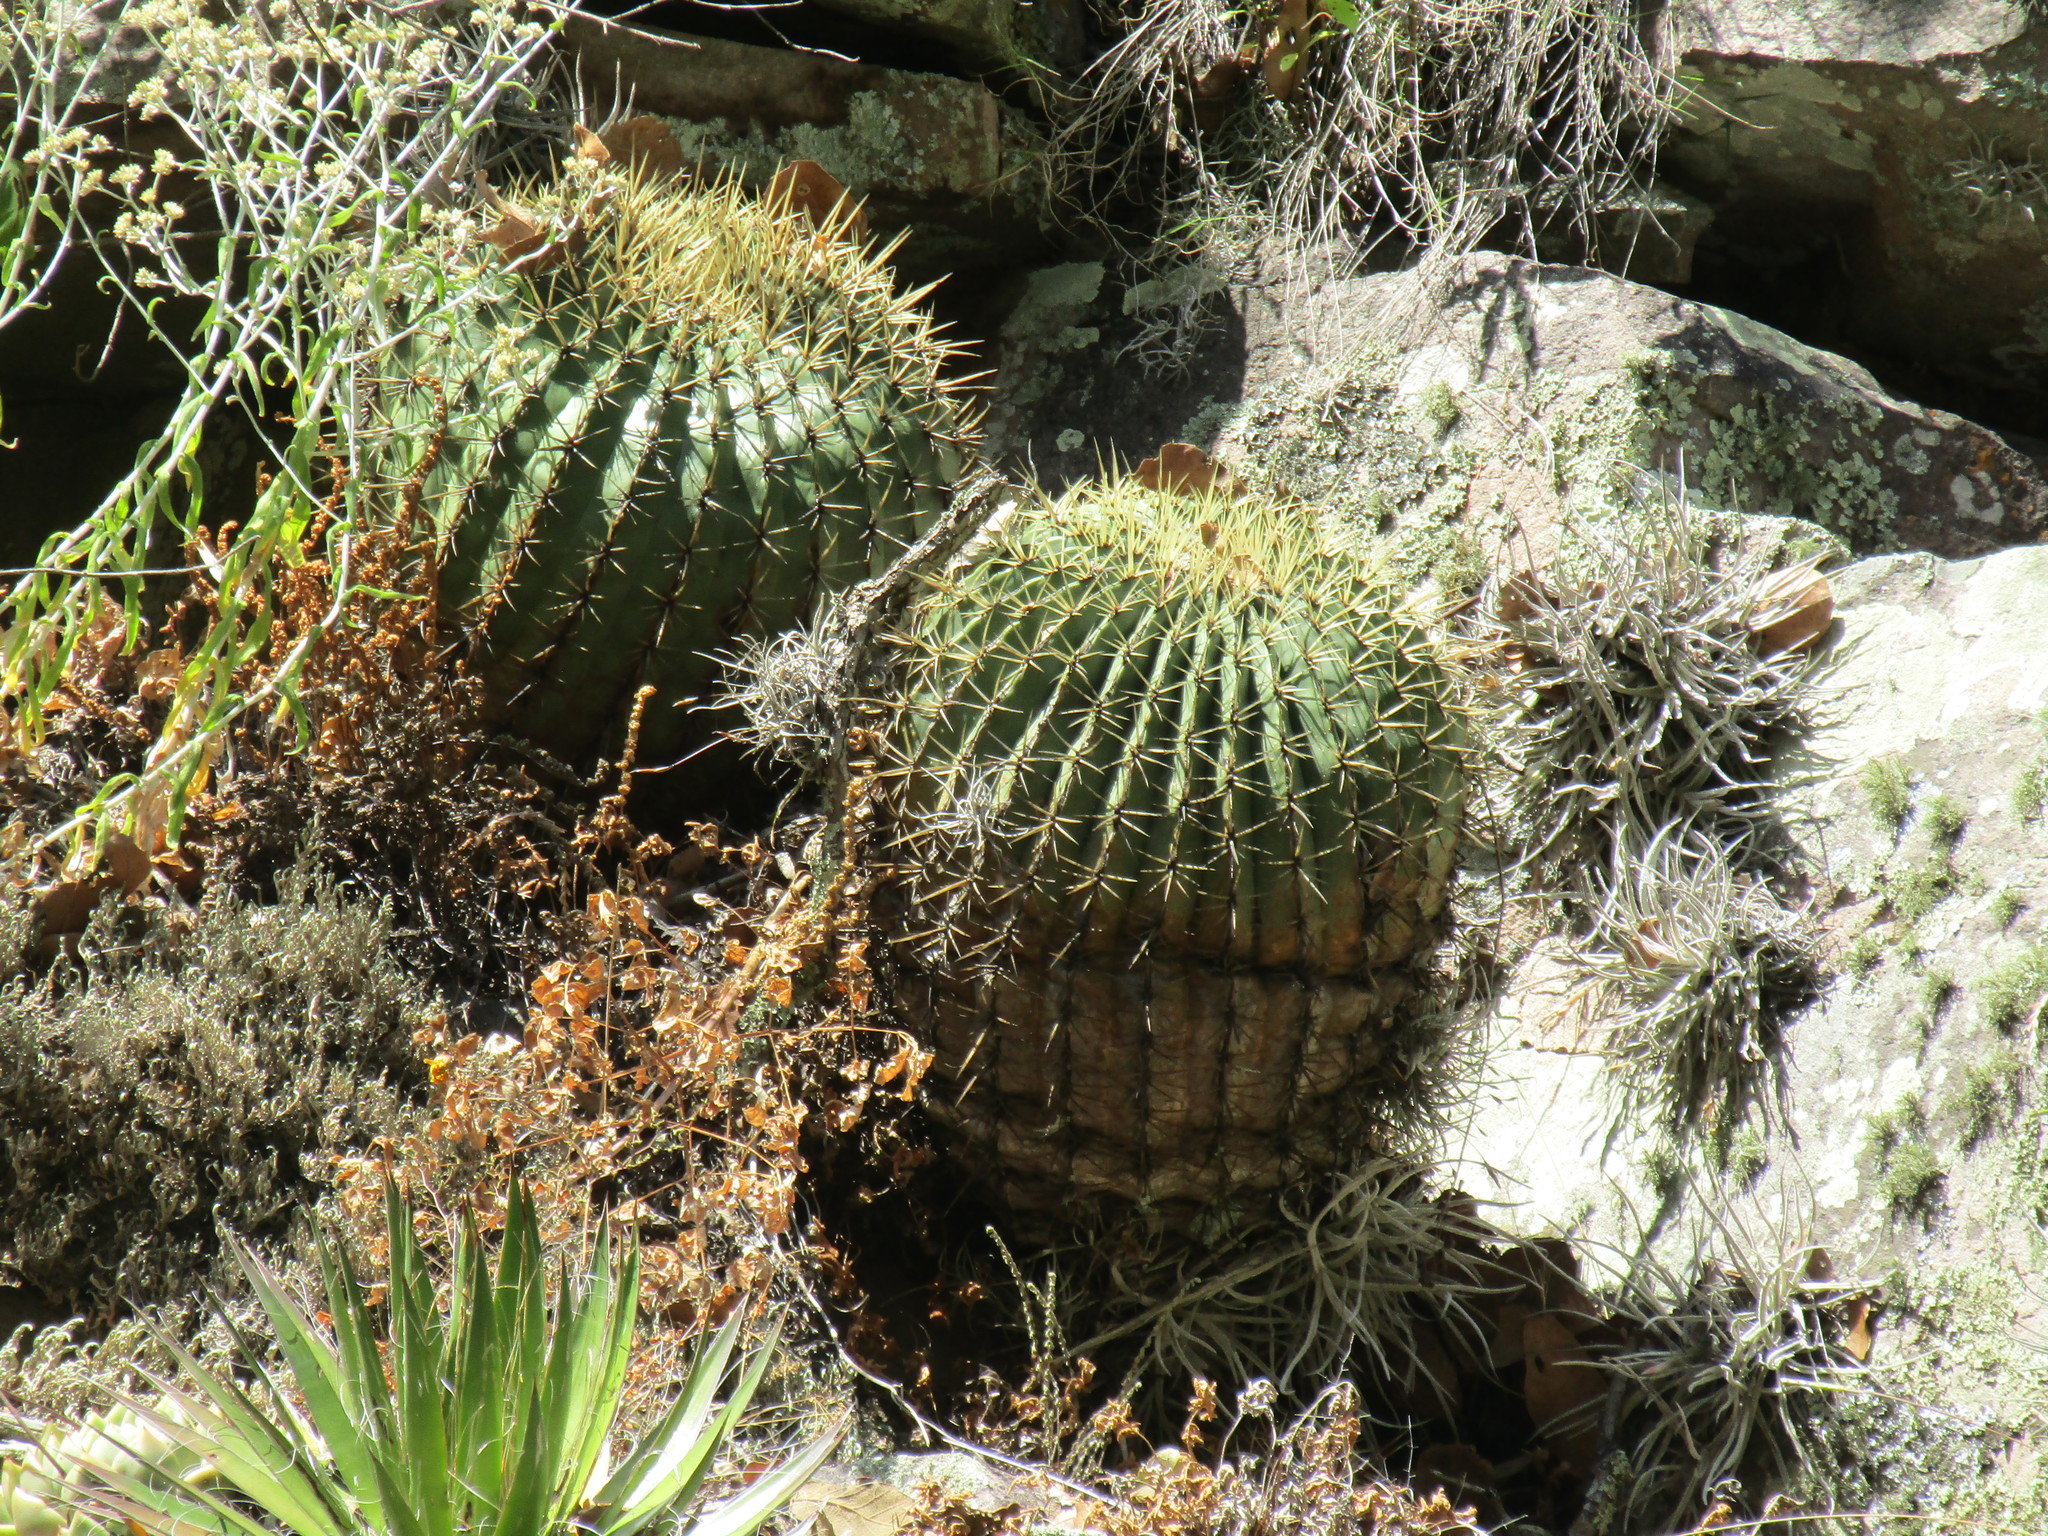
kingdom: Plantae
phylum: Tracheophyta
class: Magnoliopsida
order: Caryophyllales
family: Cactaceae
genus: Bisnaga
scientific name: Bisnaga histrix
